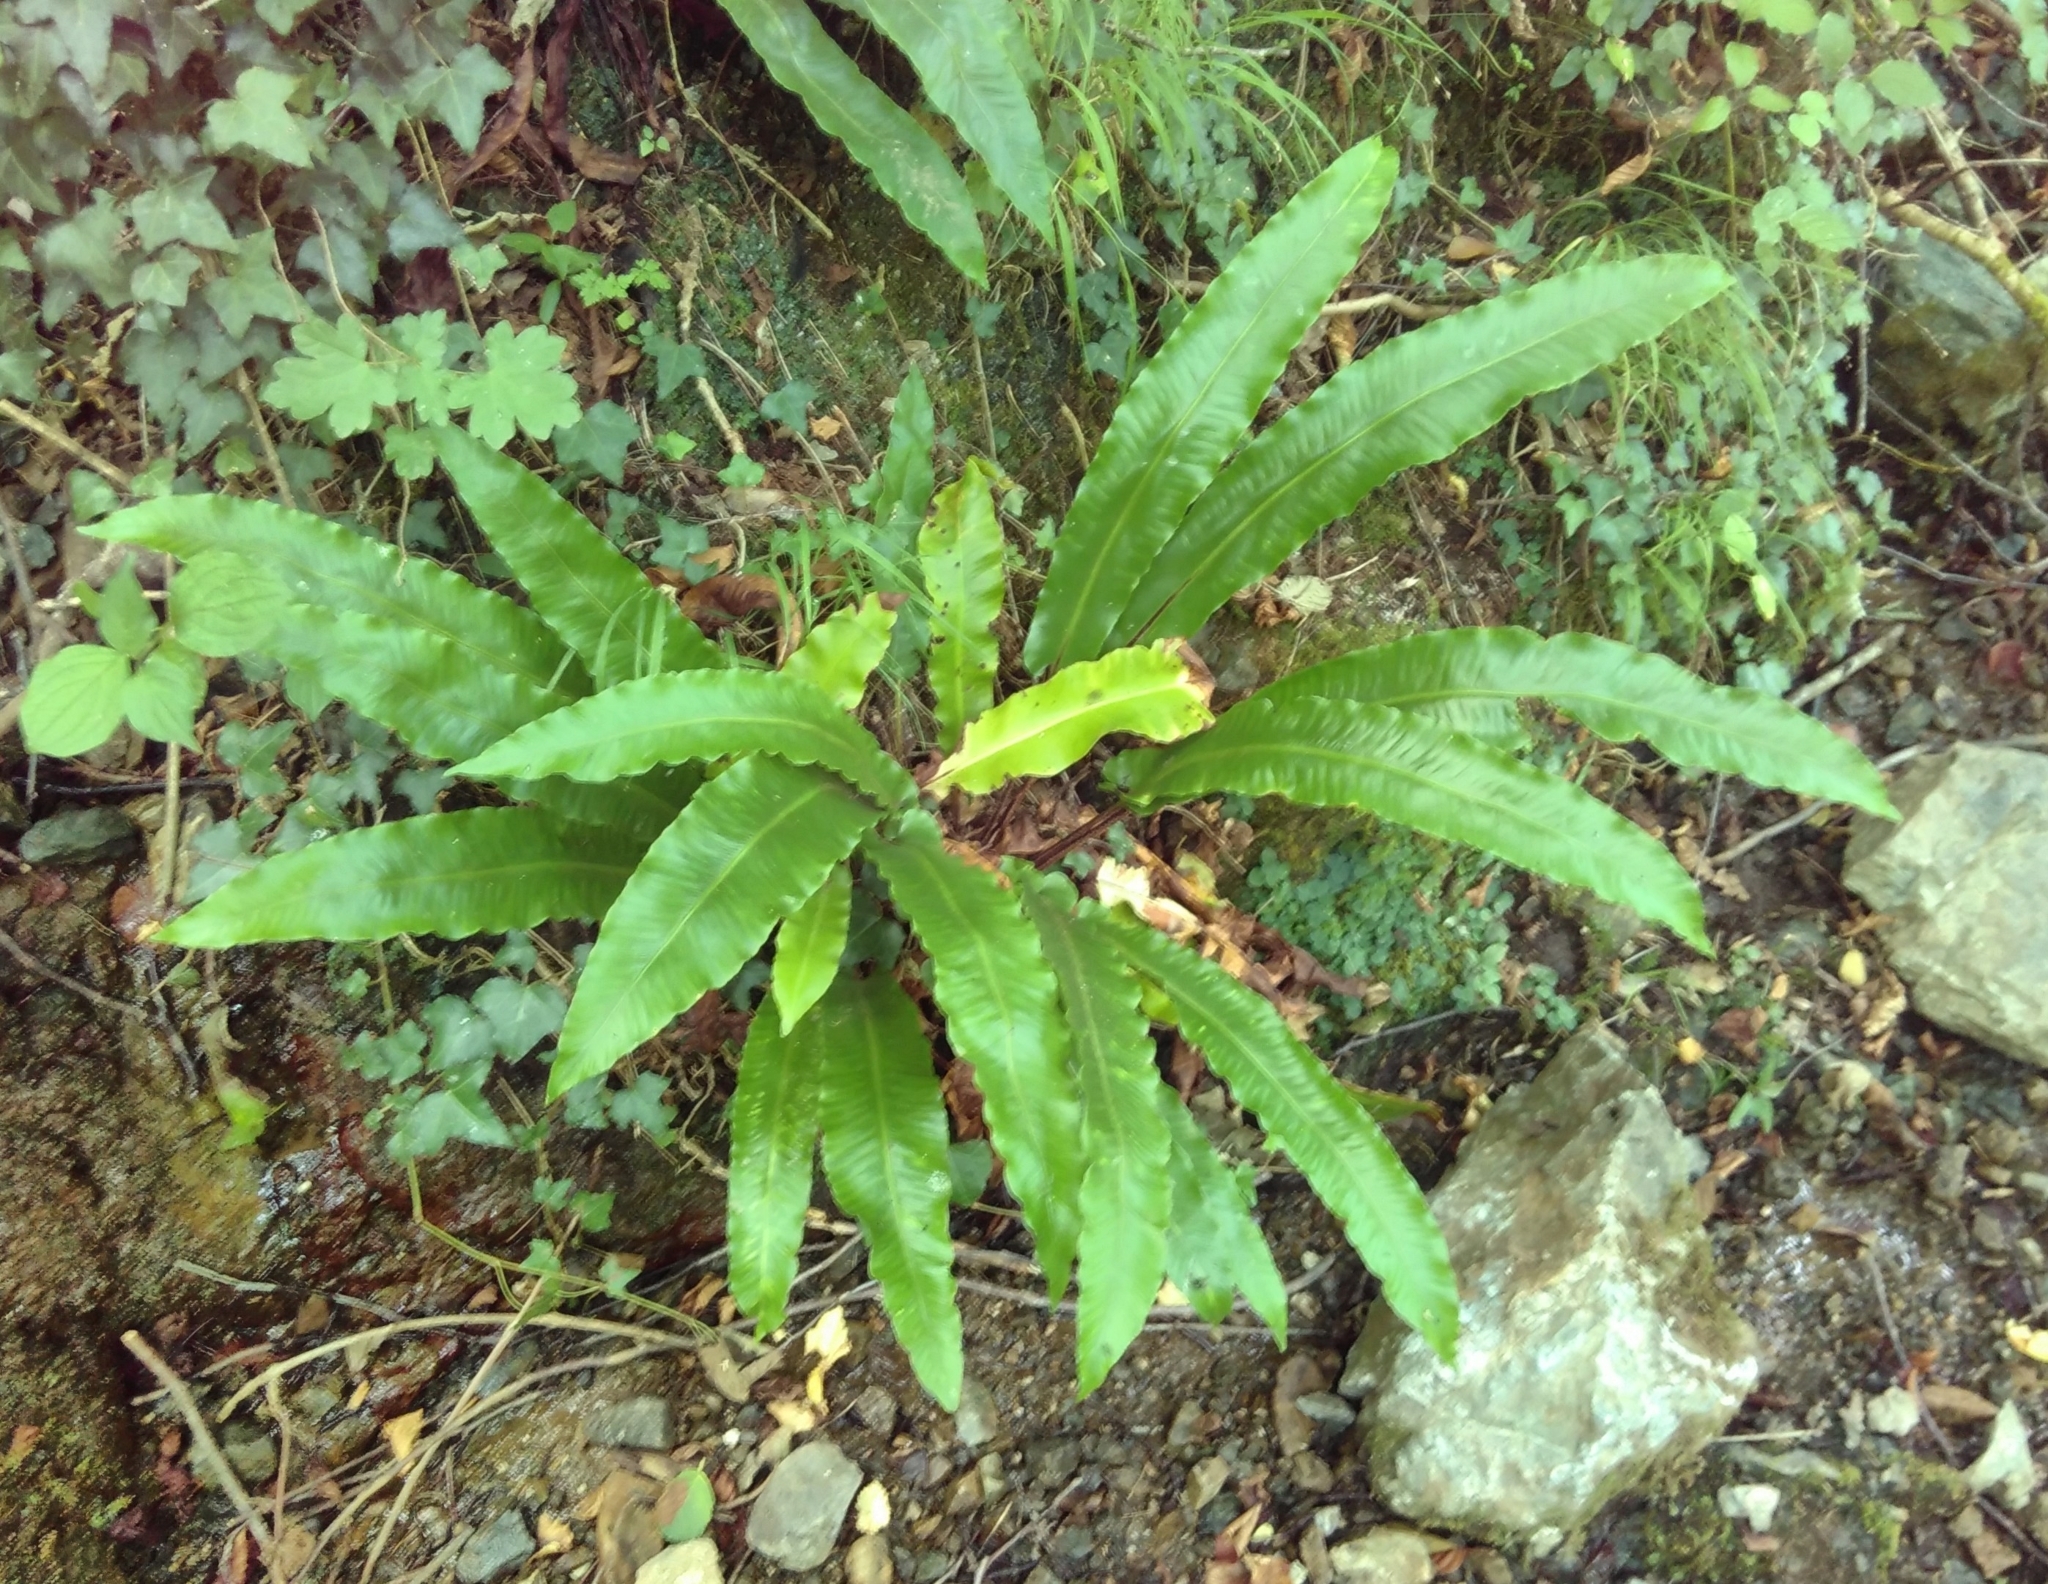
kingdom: Plantae
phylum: Tracheophyta
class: Polypodiopsida
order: Polypodiales
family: Aspleniaceae
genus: Asplenium
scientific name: Asplenium scolopendrium
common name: Hart's-tongue fern
